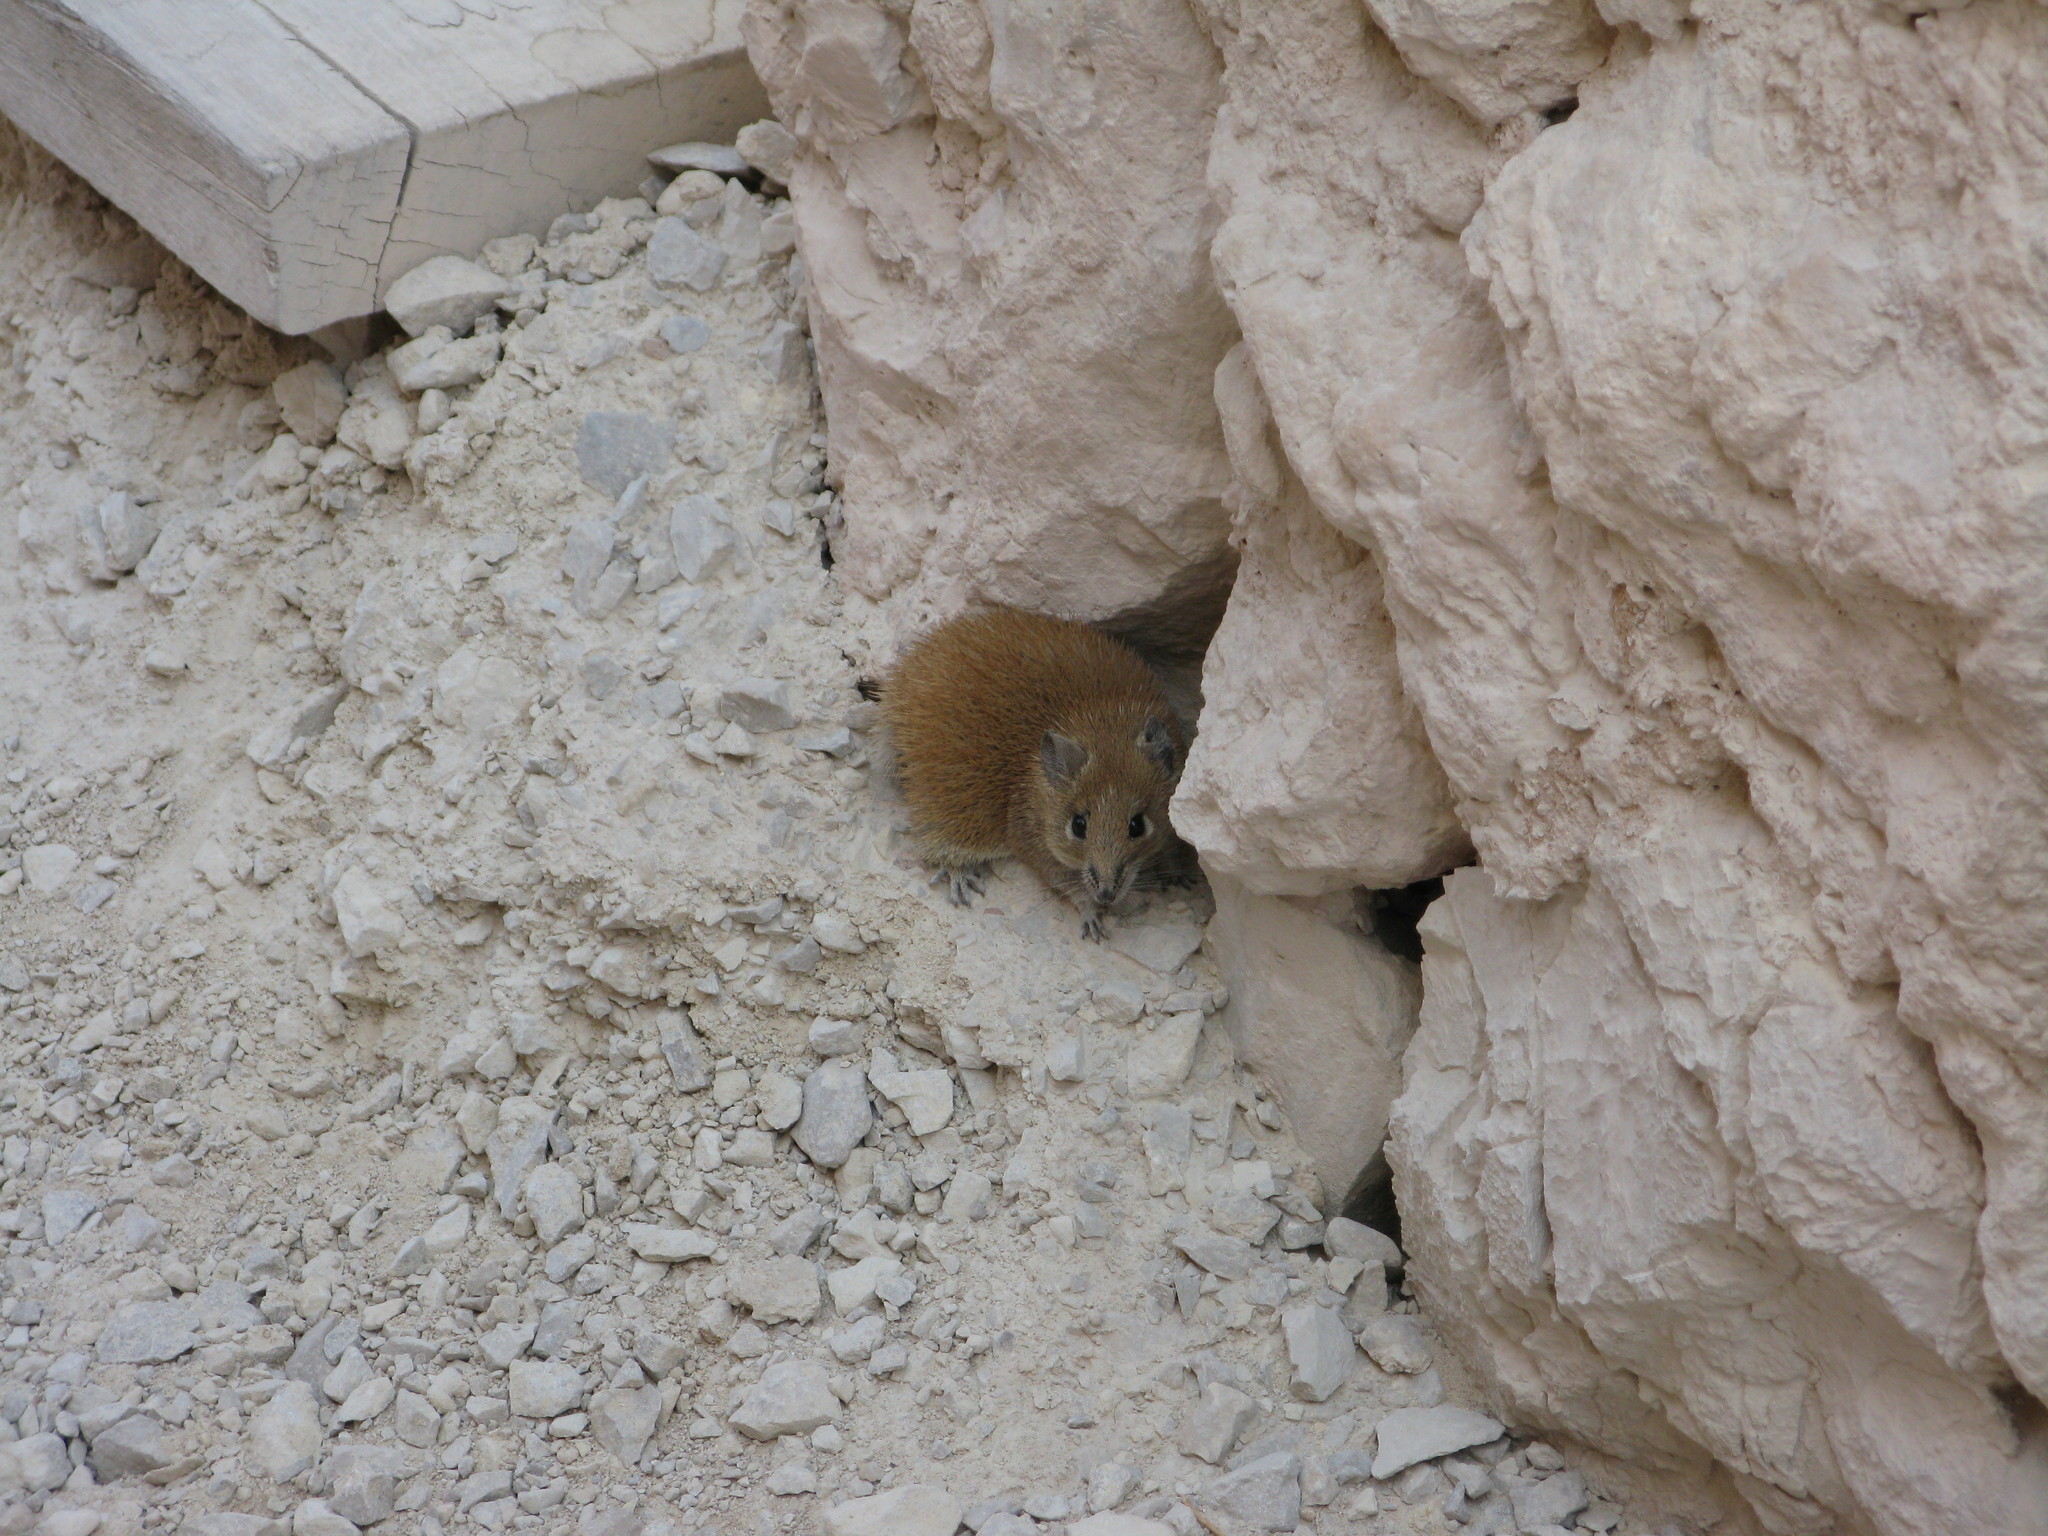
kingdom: Animalia
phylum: Chordata
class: Mammalia
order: Rodentia
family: Muridae
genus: Acomys
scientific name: Acomys russatus
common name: Golden spiny mouse
